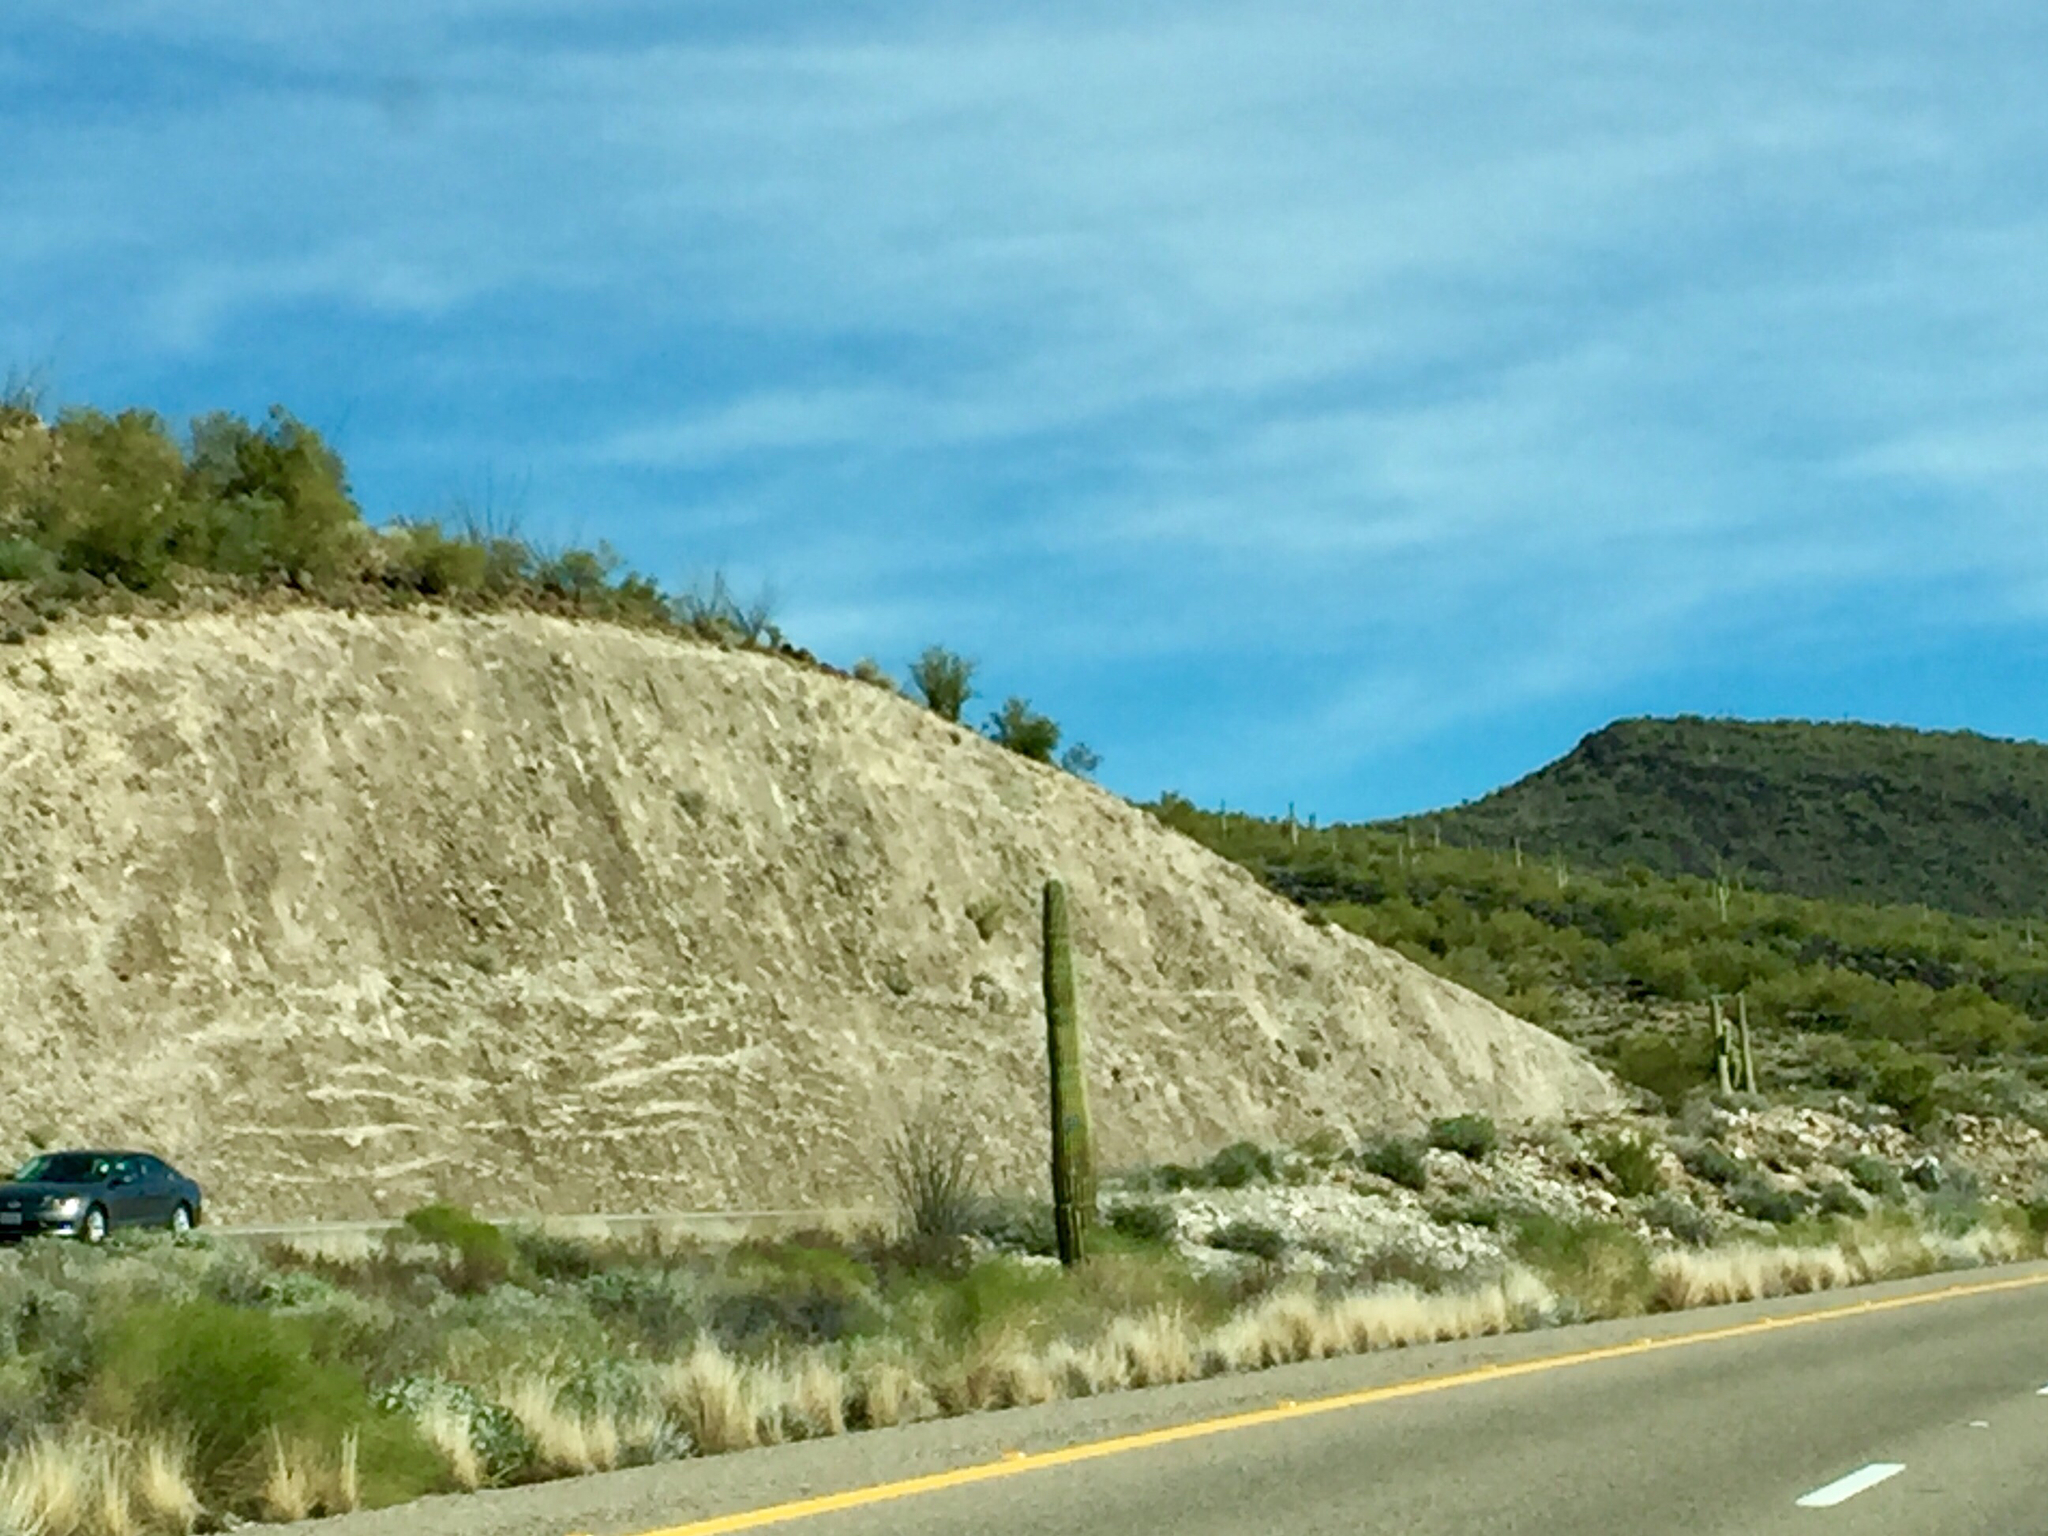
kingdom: Plantae
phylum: Tracheophyta
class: Magnoliopsida
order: Caryophyllales
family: Cactaceae
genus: Carnegiea
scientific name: Carnegiea gigantea
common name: Saguaro
